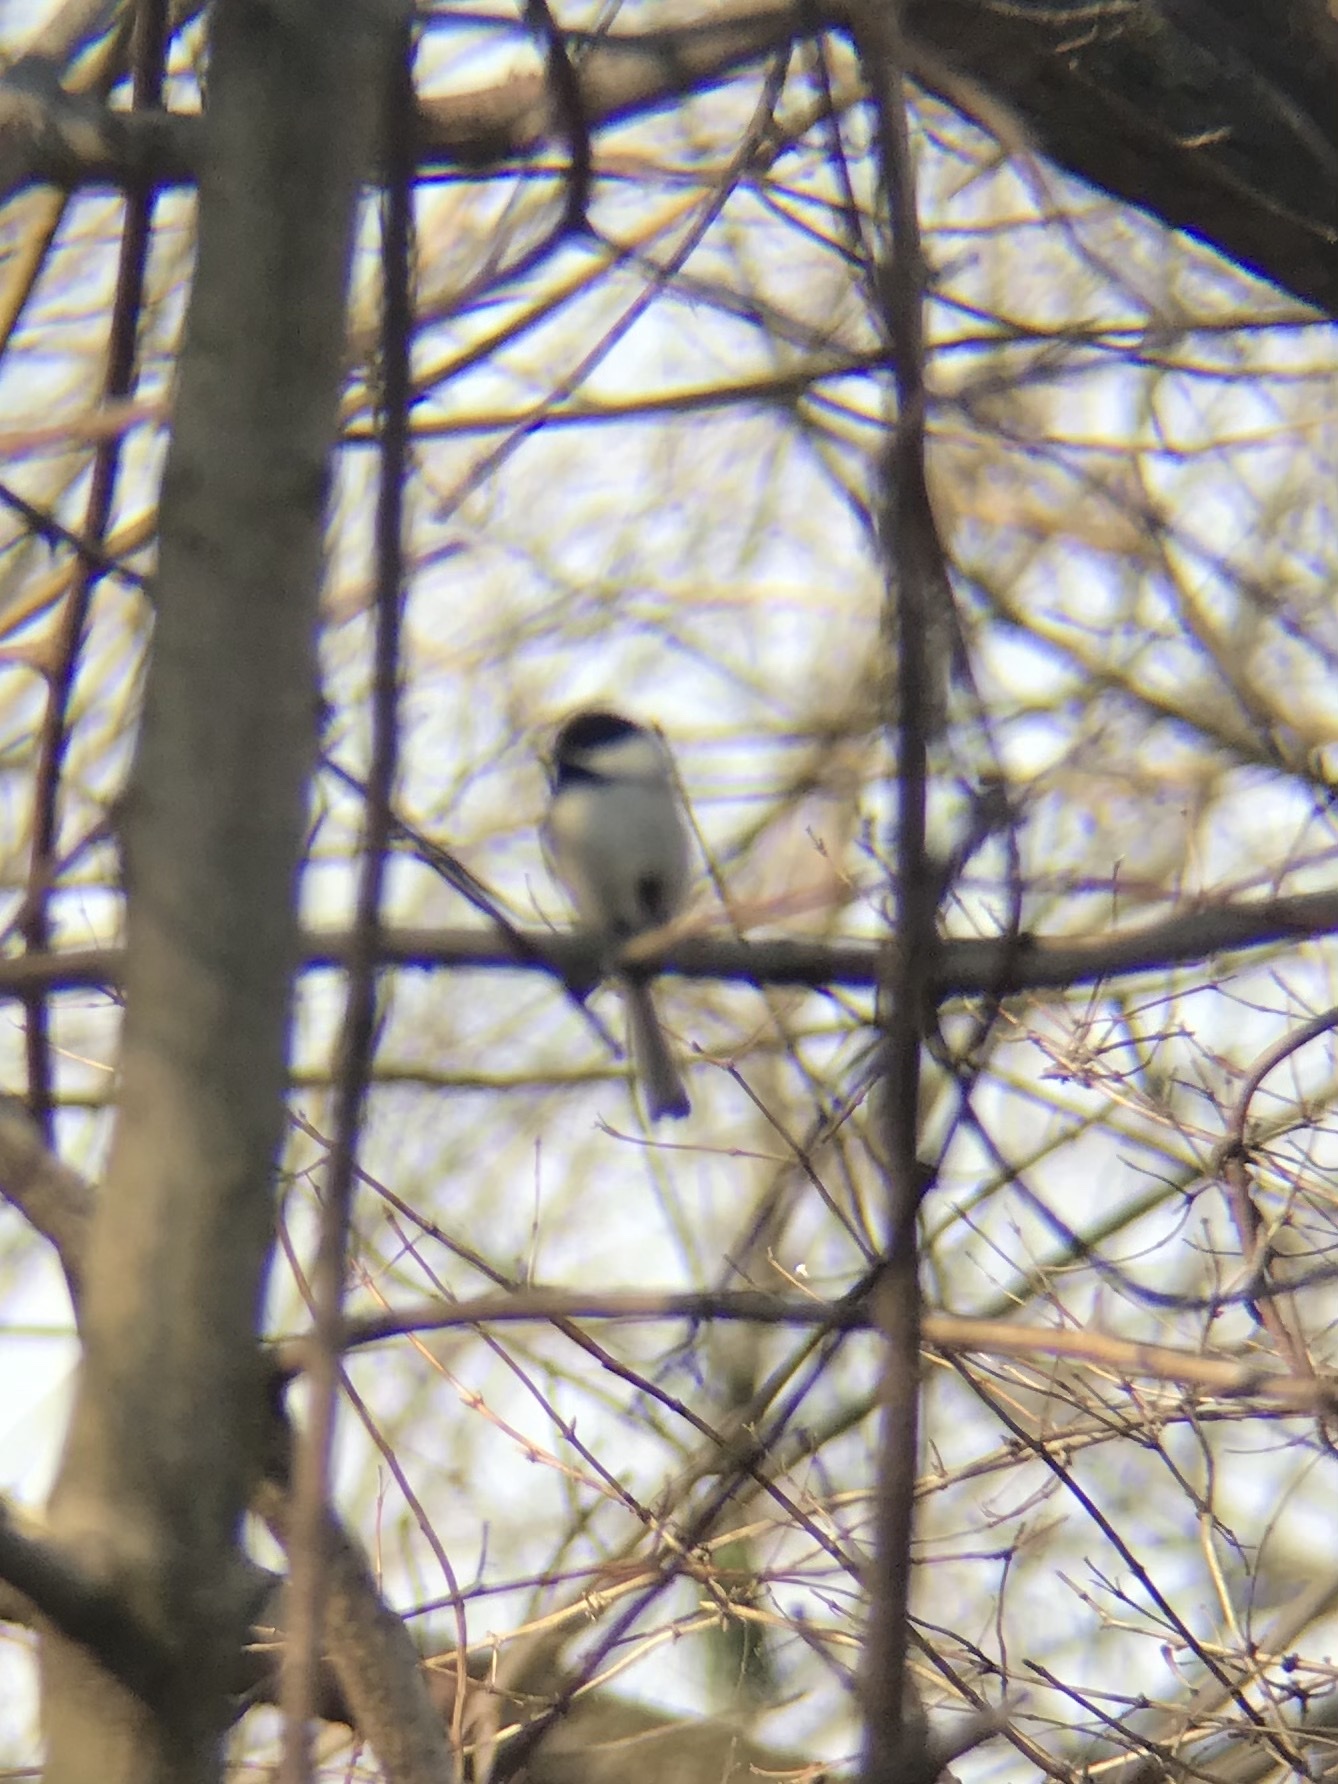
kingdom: Animalia
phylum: Chordata
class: Aves
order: Passeriformes
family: Paridae
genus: Poecile
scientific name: Poecile atricapillus
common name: Black-capped chickadee
